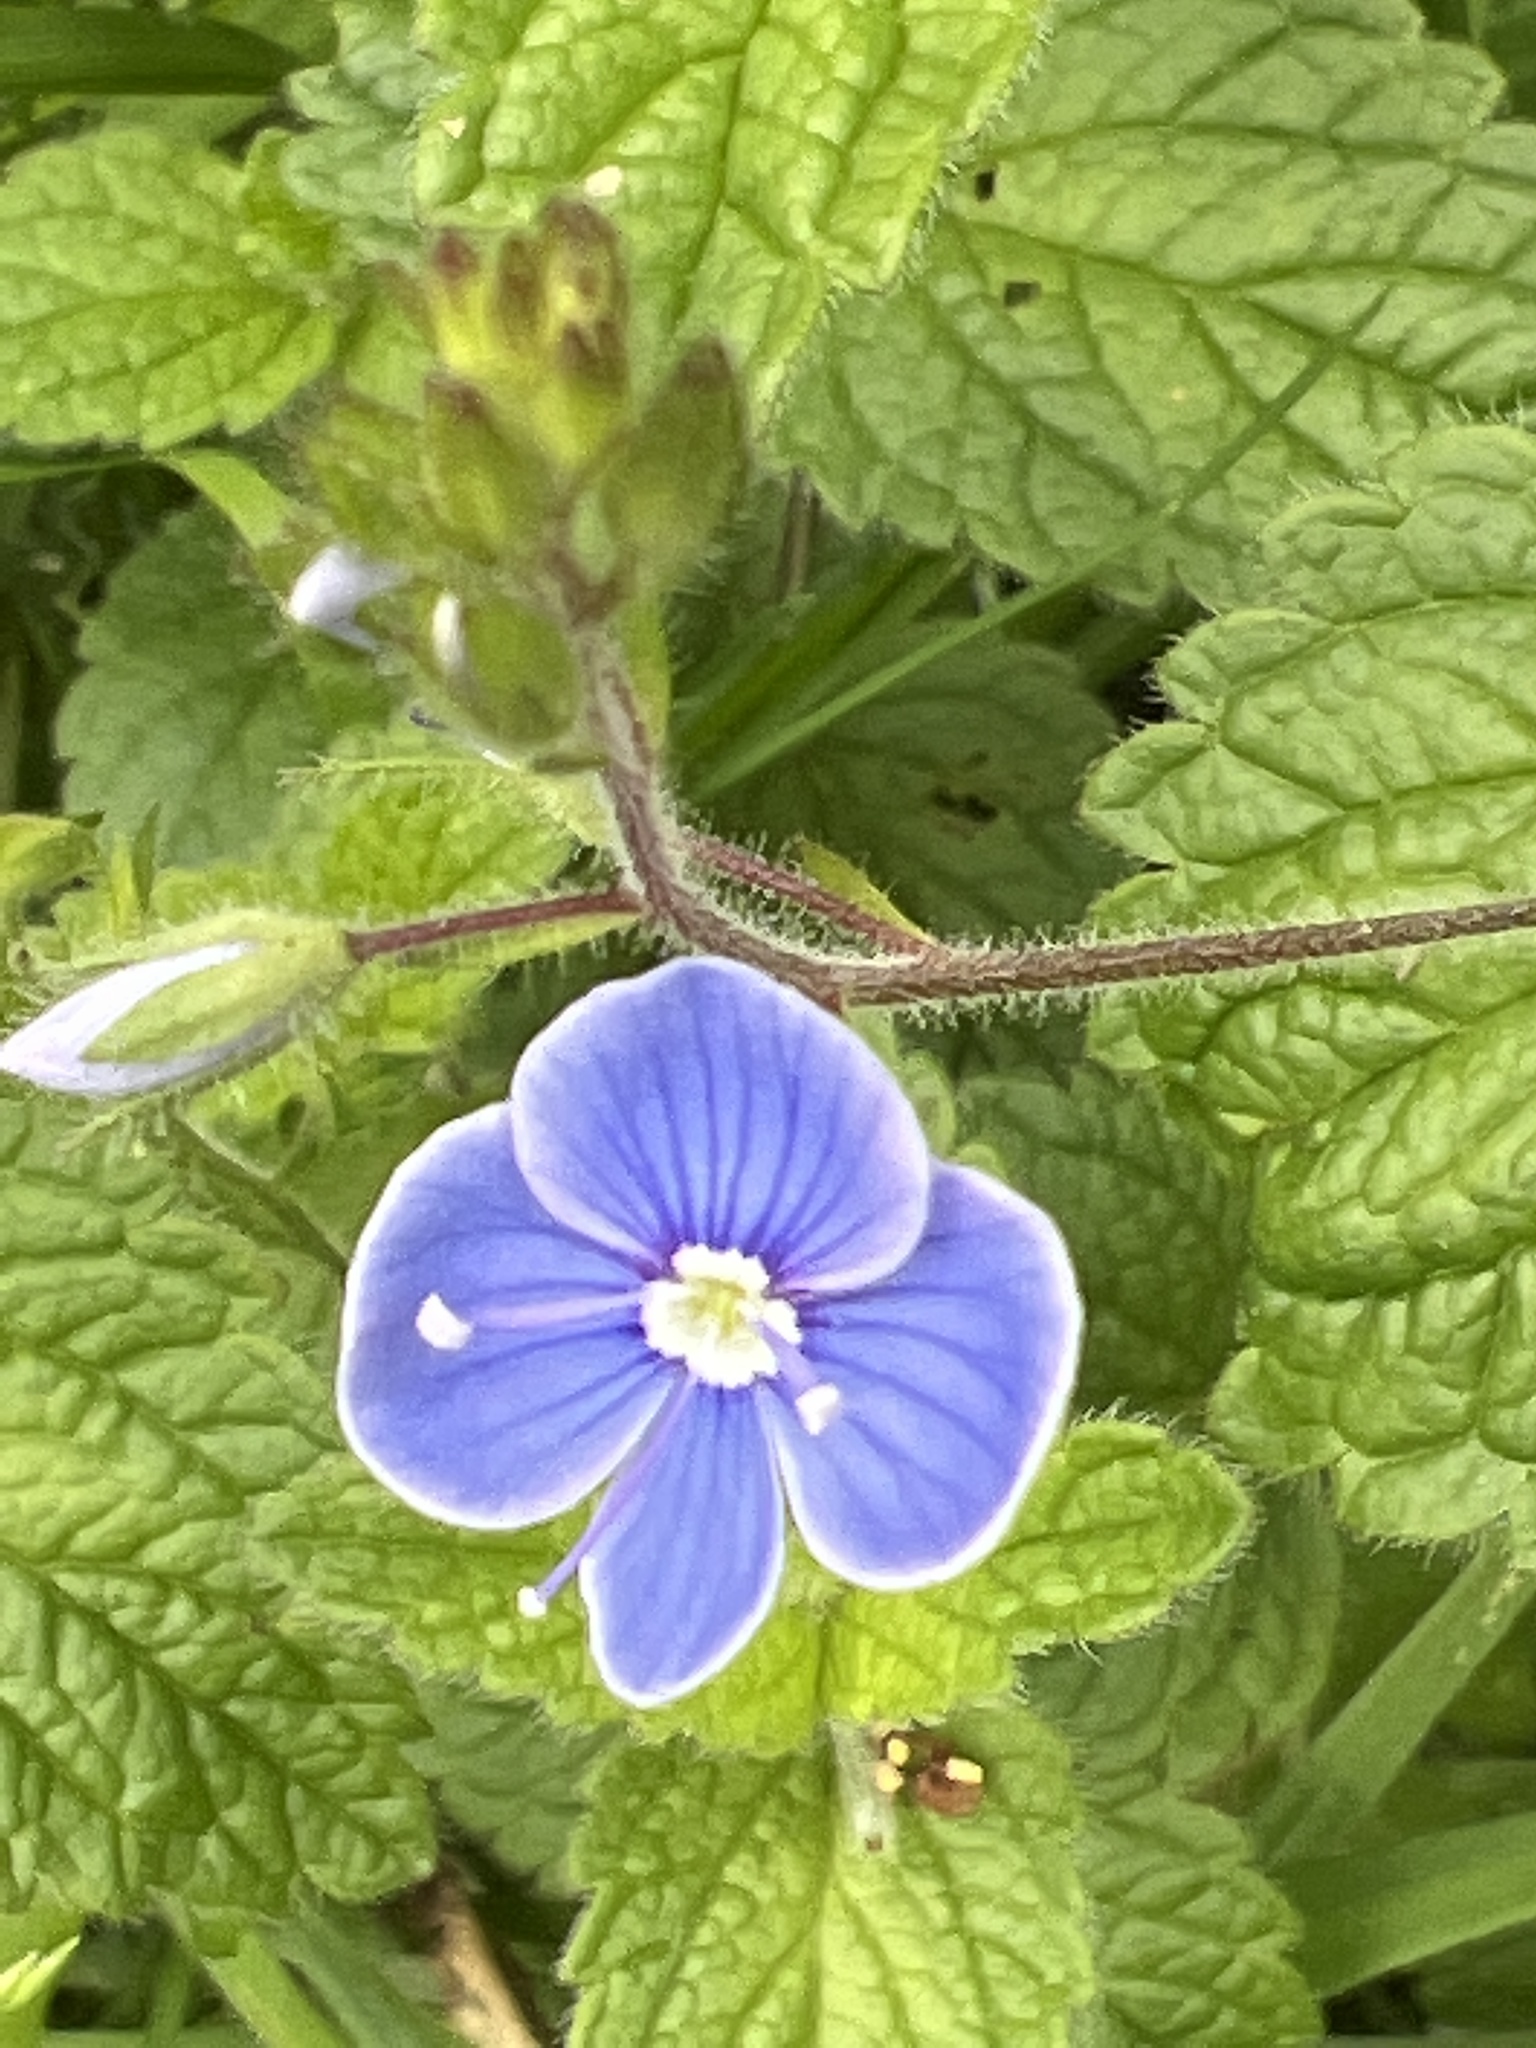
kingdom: Plantae
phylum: Tracheophyta
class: Magnoliopsida
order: Lamiales
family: Plantaginaceae
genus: Veronica
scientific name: Veronica chamaedrys
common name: Germander speedwell
